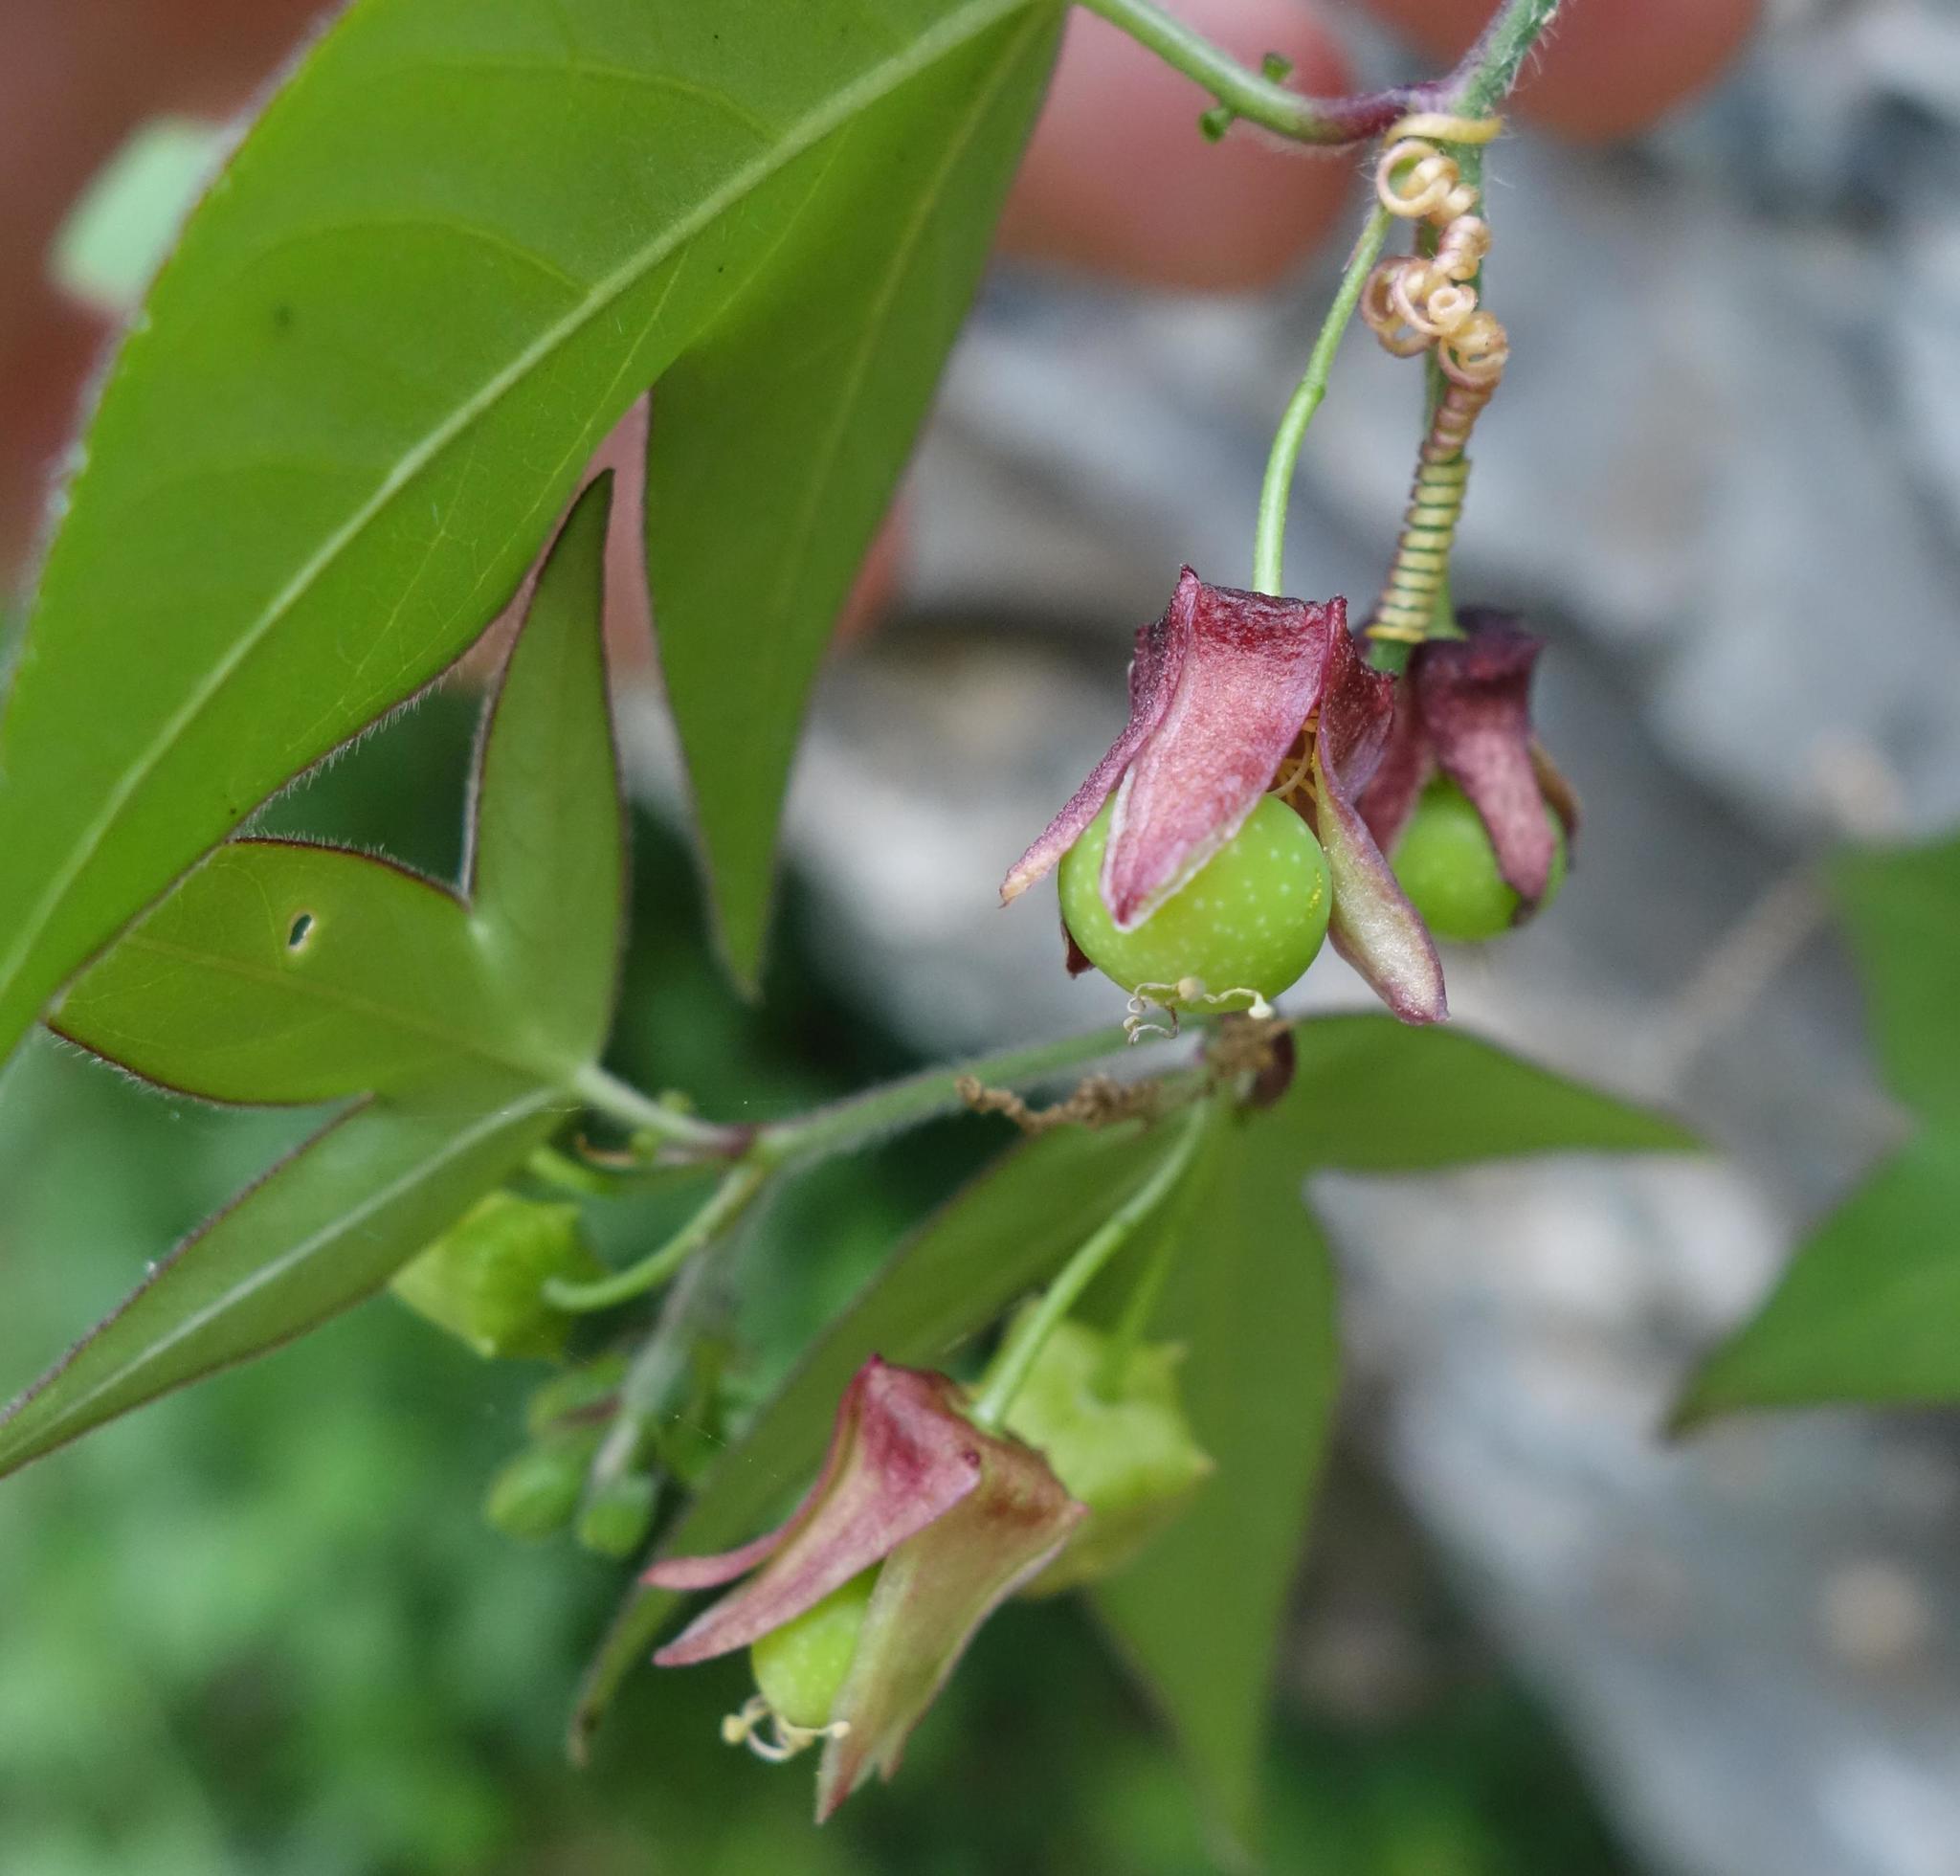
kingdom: Plantae
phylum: Tracheophyta
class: Magnoliopsida
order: Malpighiales
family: Passifloraceae
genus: Passiflora
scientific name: Passiflora suberosa
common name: Wild passionfruit
